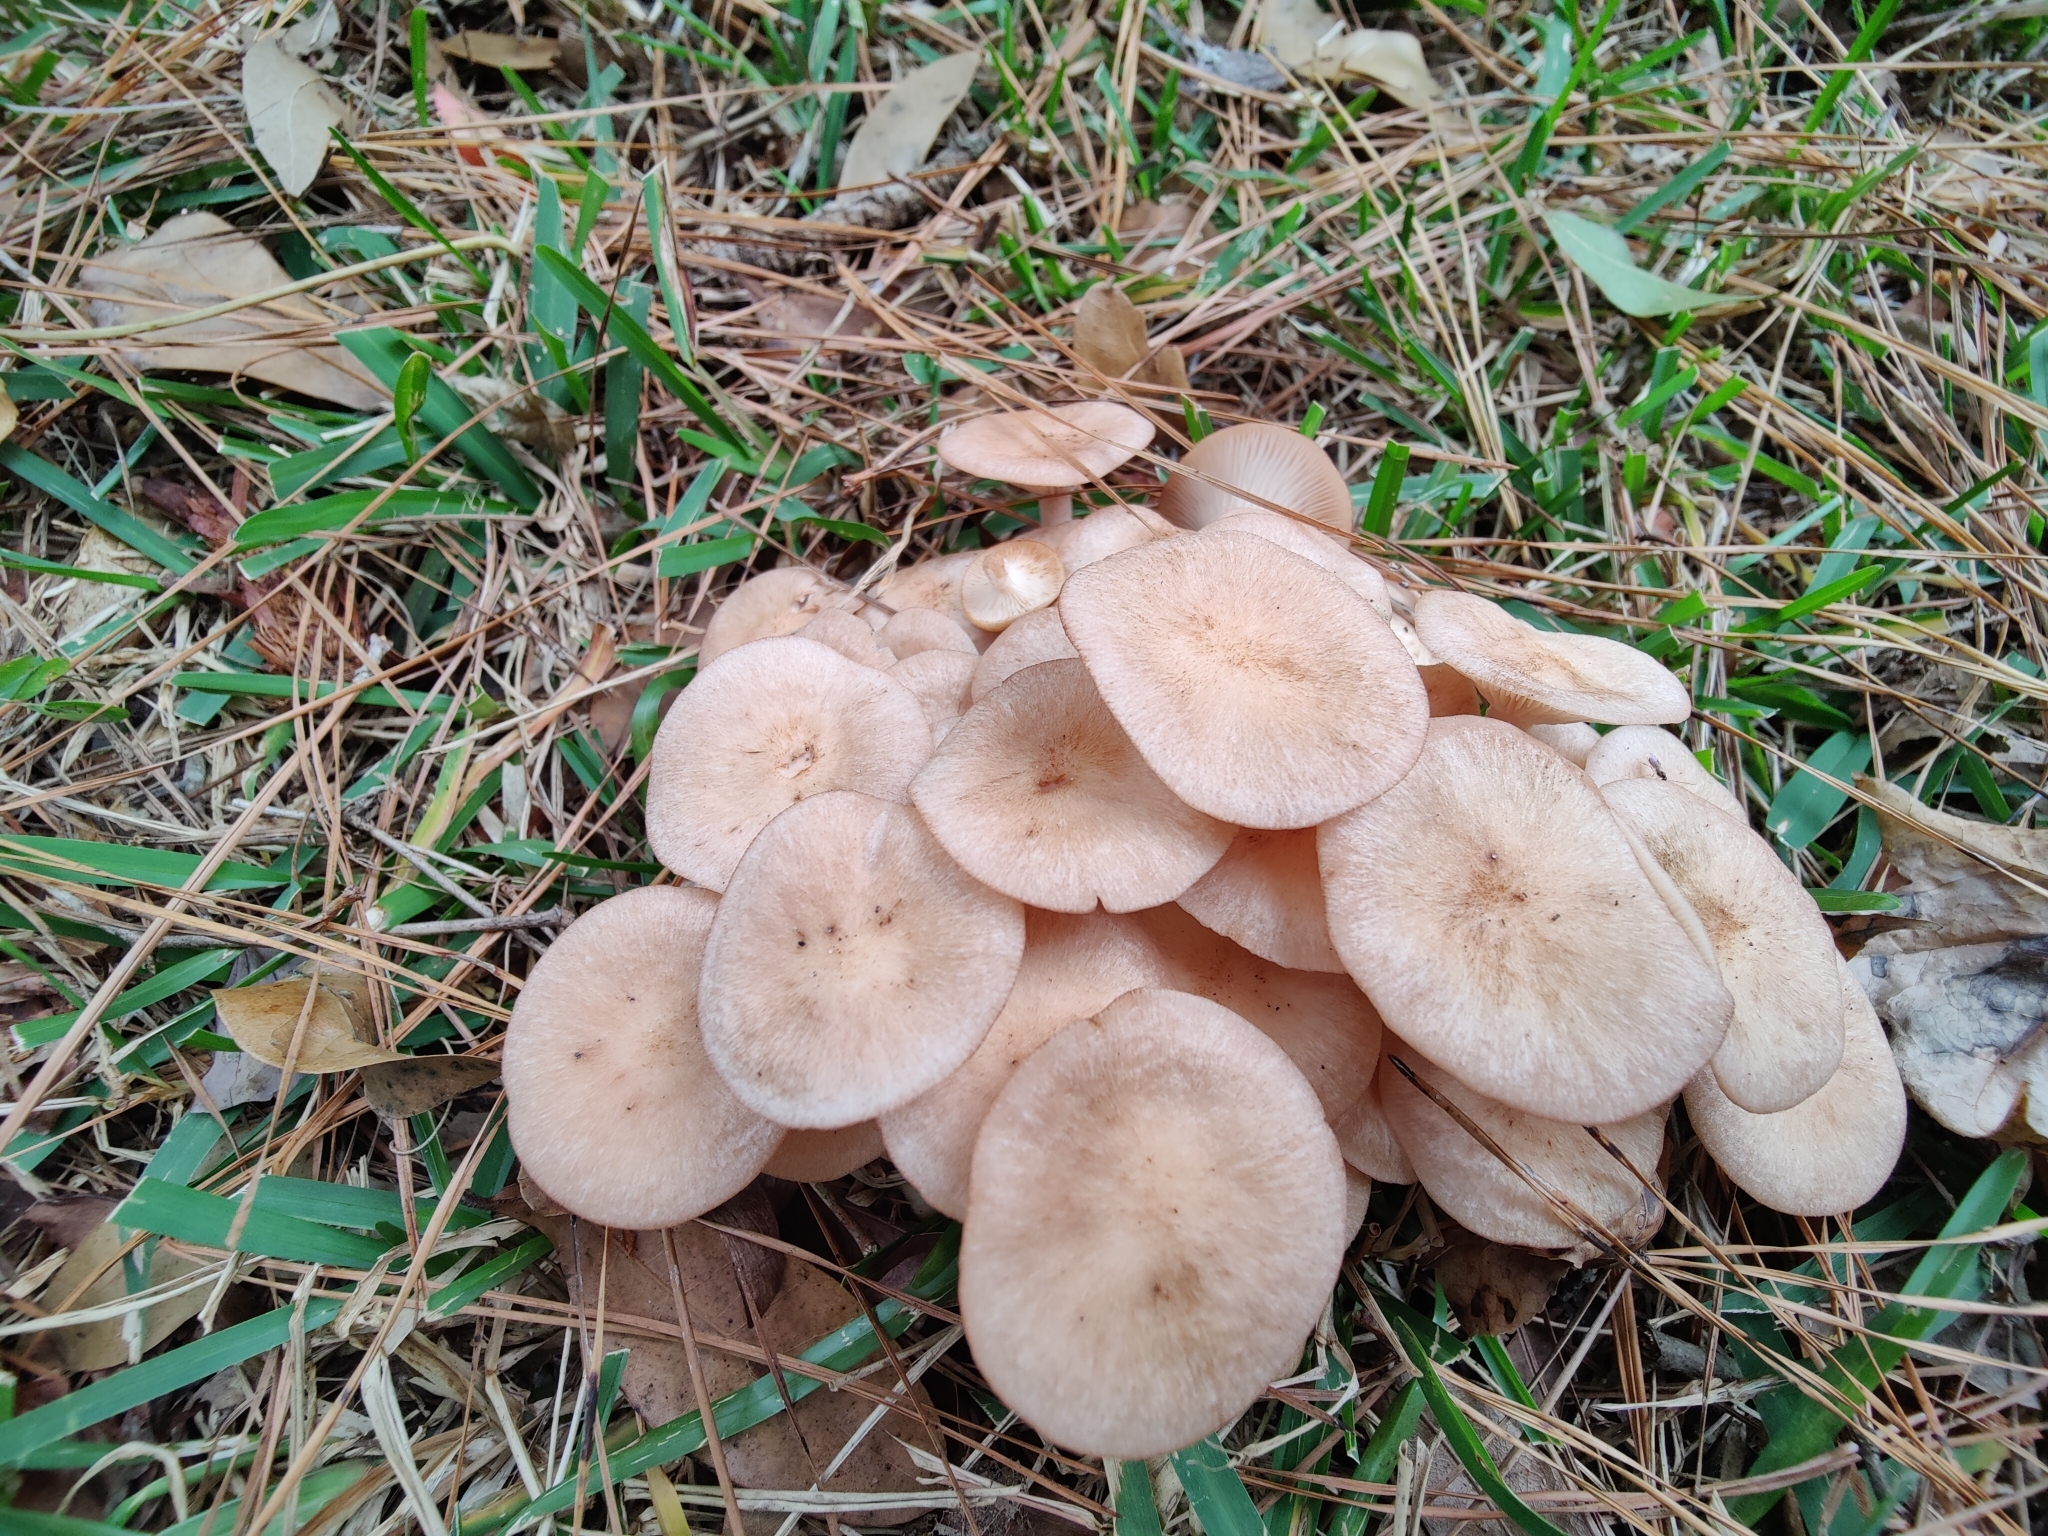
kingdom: Fungi
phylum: Basidiomycota
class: Agaricomycetes
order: Agaricales
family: Physalacriaceae
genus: Desarmillaria
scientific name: Desarmillaria caespitosa
